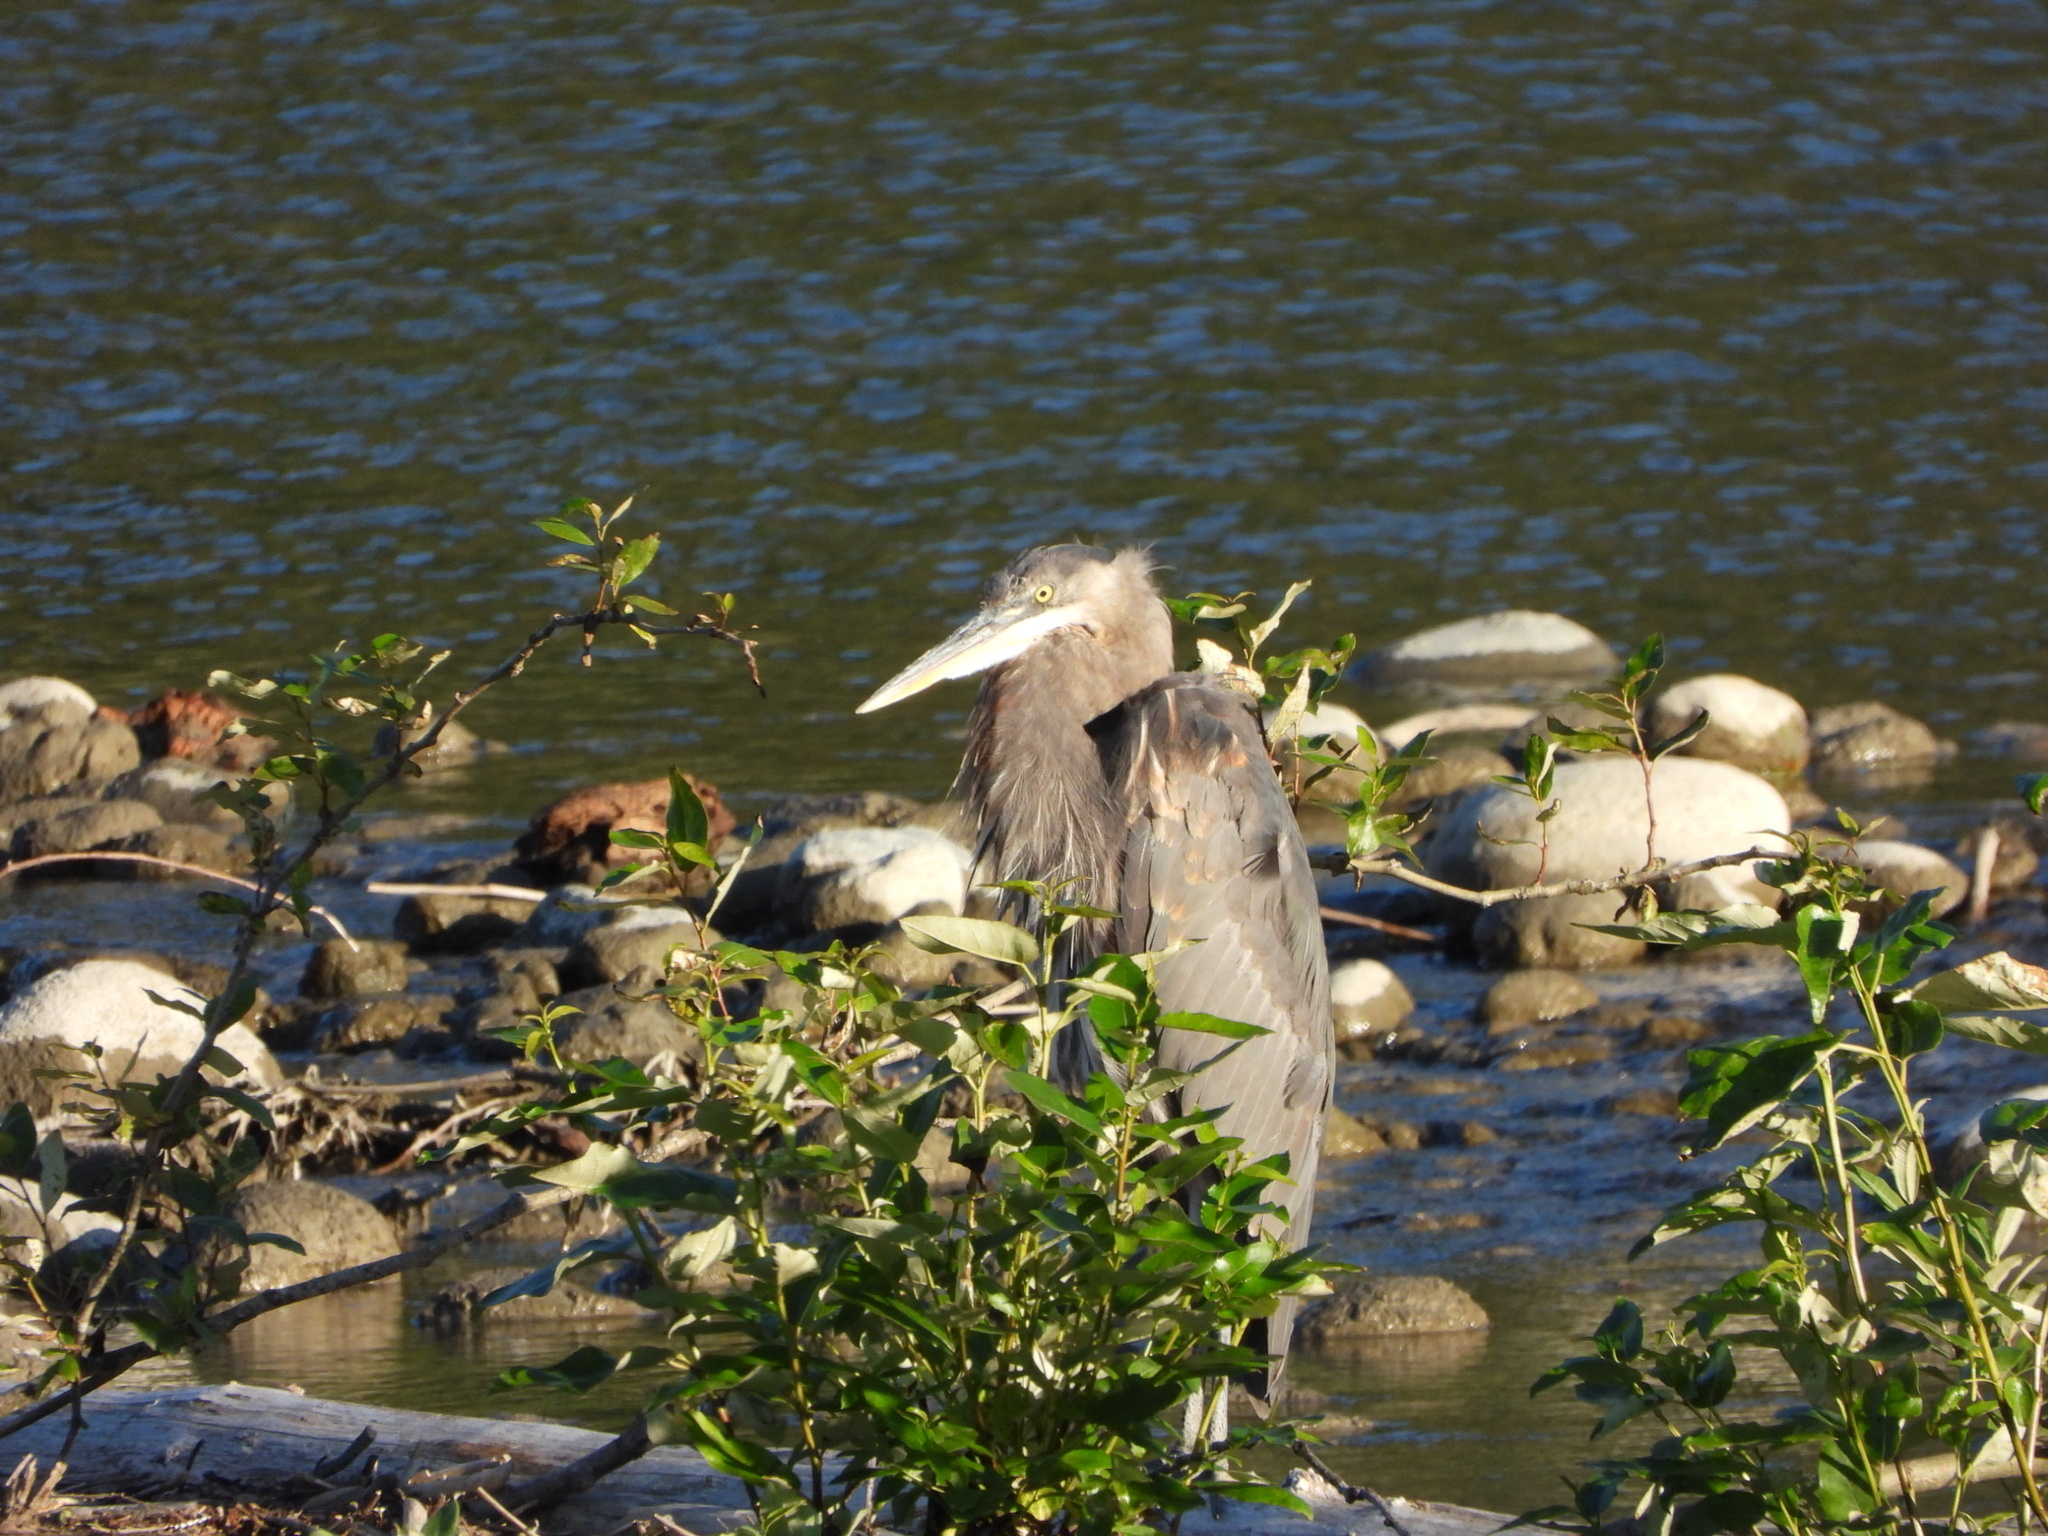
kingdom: Animalia
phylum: Chordata
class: Aves
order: Pelecaniformes
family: Ardeidae
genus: Ardea
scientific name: Ardea herodias
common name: Great blue heron
